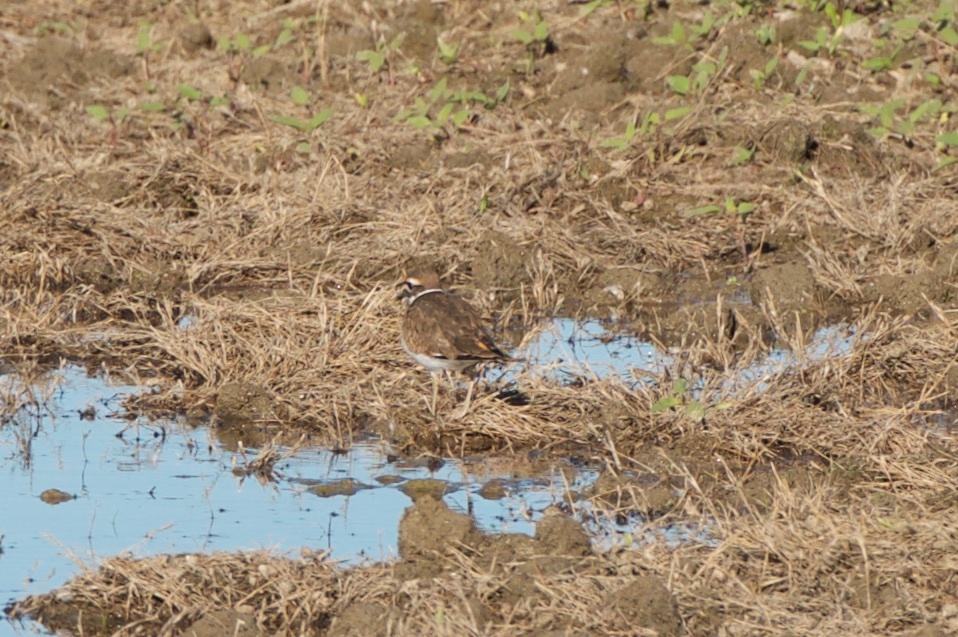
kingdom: Animalia
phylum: Chordata
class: Aves
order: Charadriiformes
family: Charadriidae
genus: Charadrius
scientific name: Charadrius vociferus
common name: Killdeer
